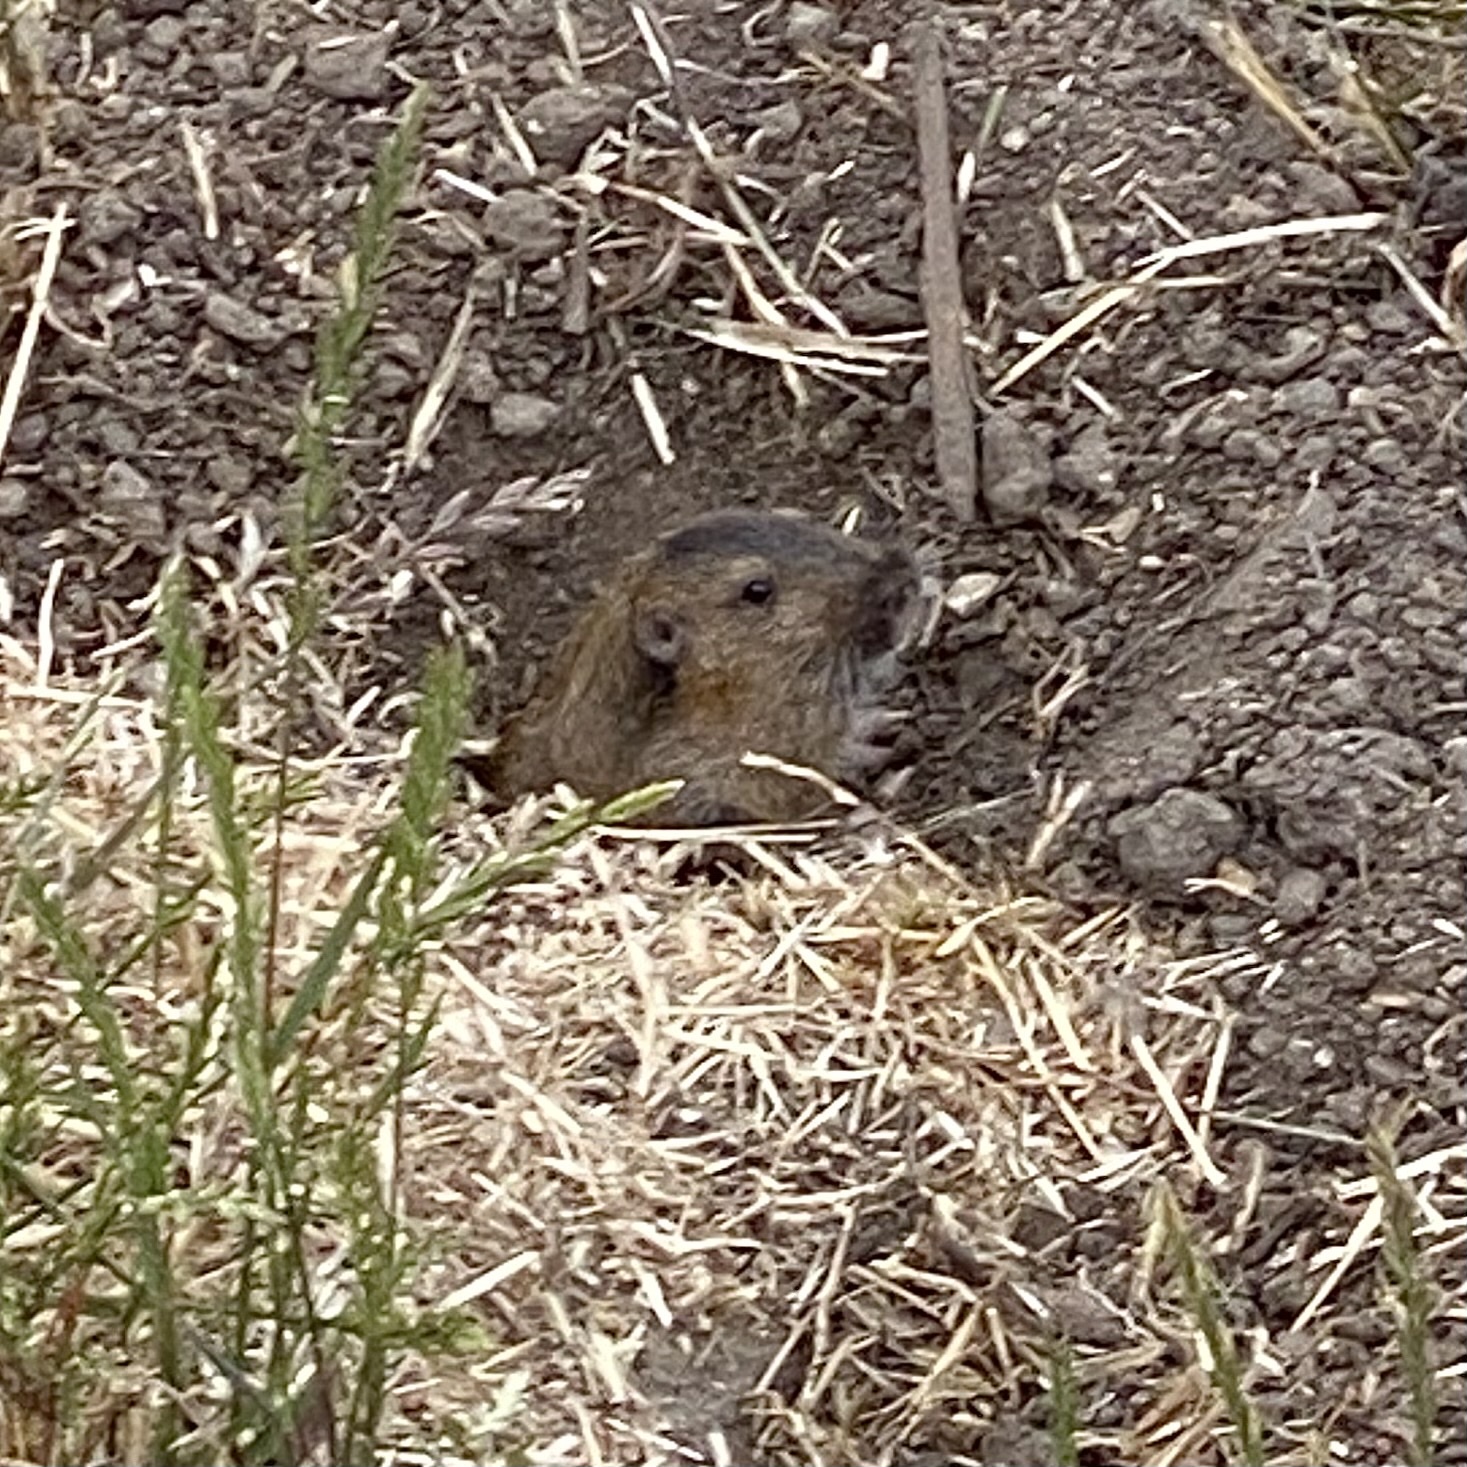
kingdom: Animalia
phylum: Chordata
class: Mammalia
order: Rodentia
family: Geomyidae
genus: Thomomys
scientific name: Thomomys bottae
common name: Botta's pocket gopher
